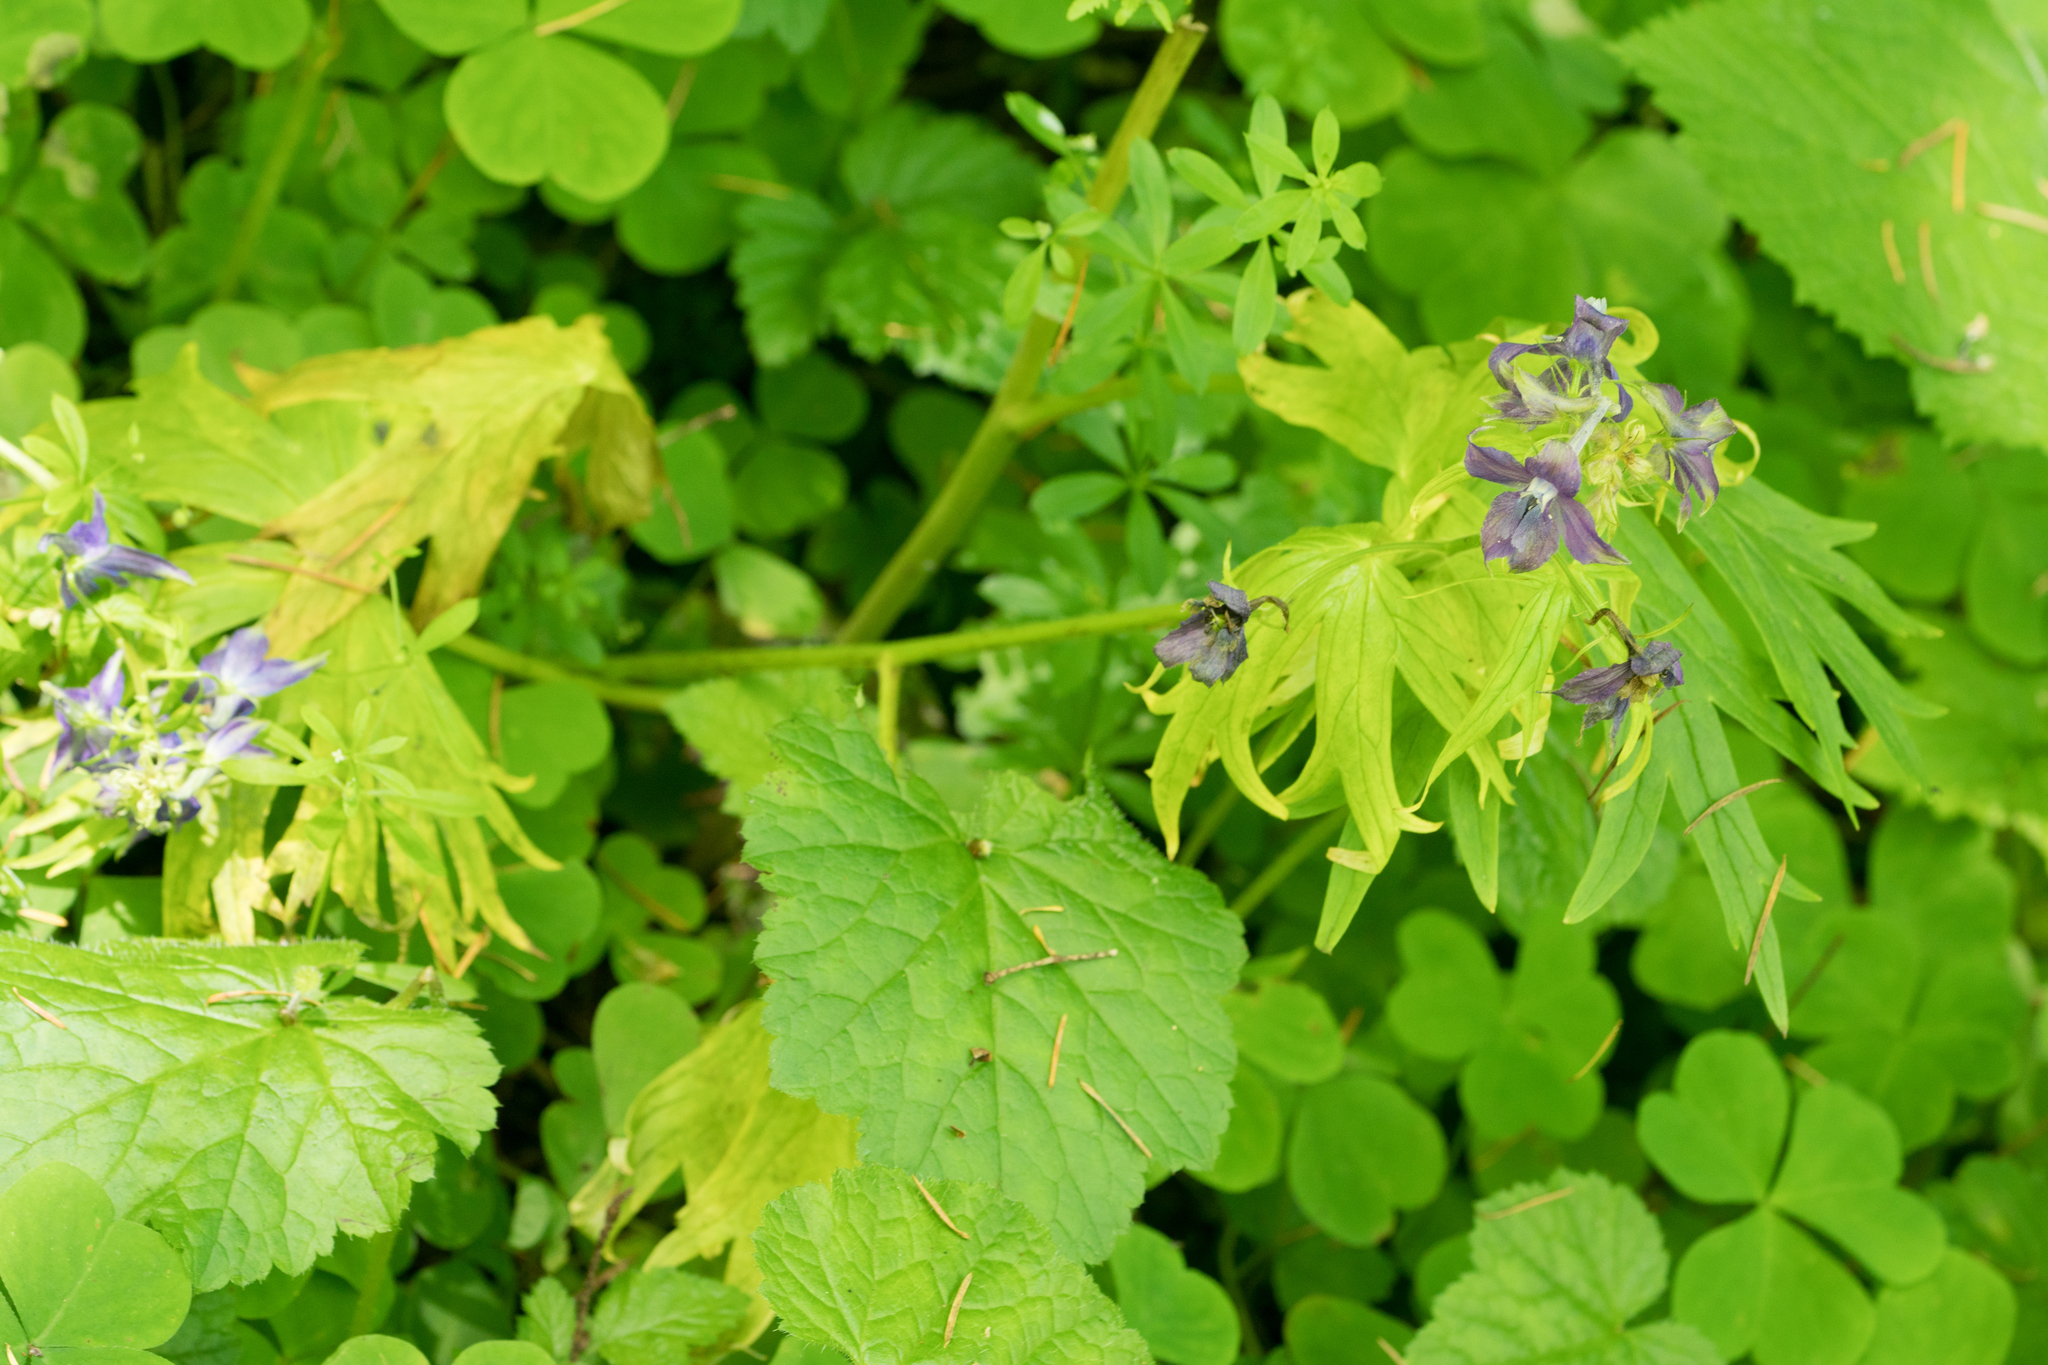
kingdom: Plantae
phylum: Tracheophyta
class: Magnoliopsida
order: Ranunculales
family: Ranunculaceae
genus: Delphinium
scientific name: Delphinium trolliifolium
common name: Cow-poison
